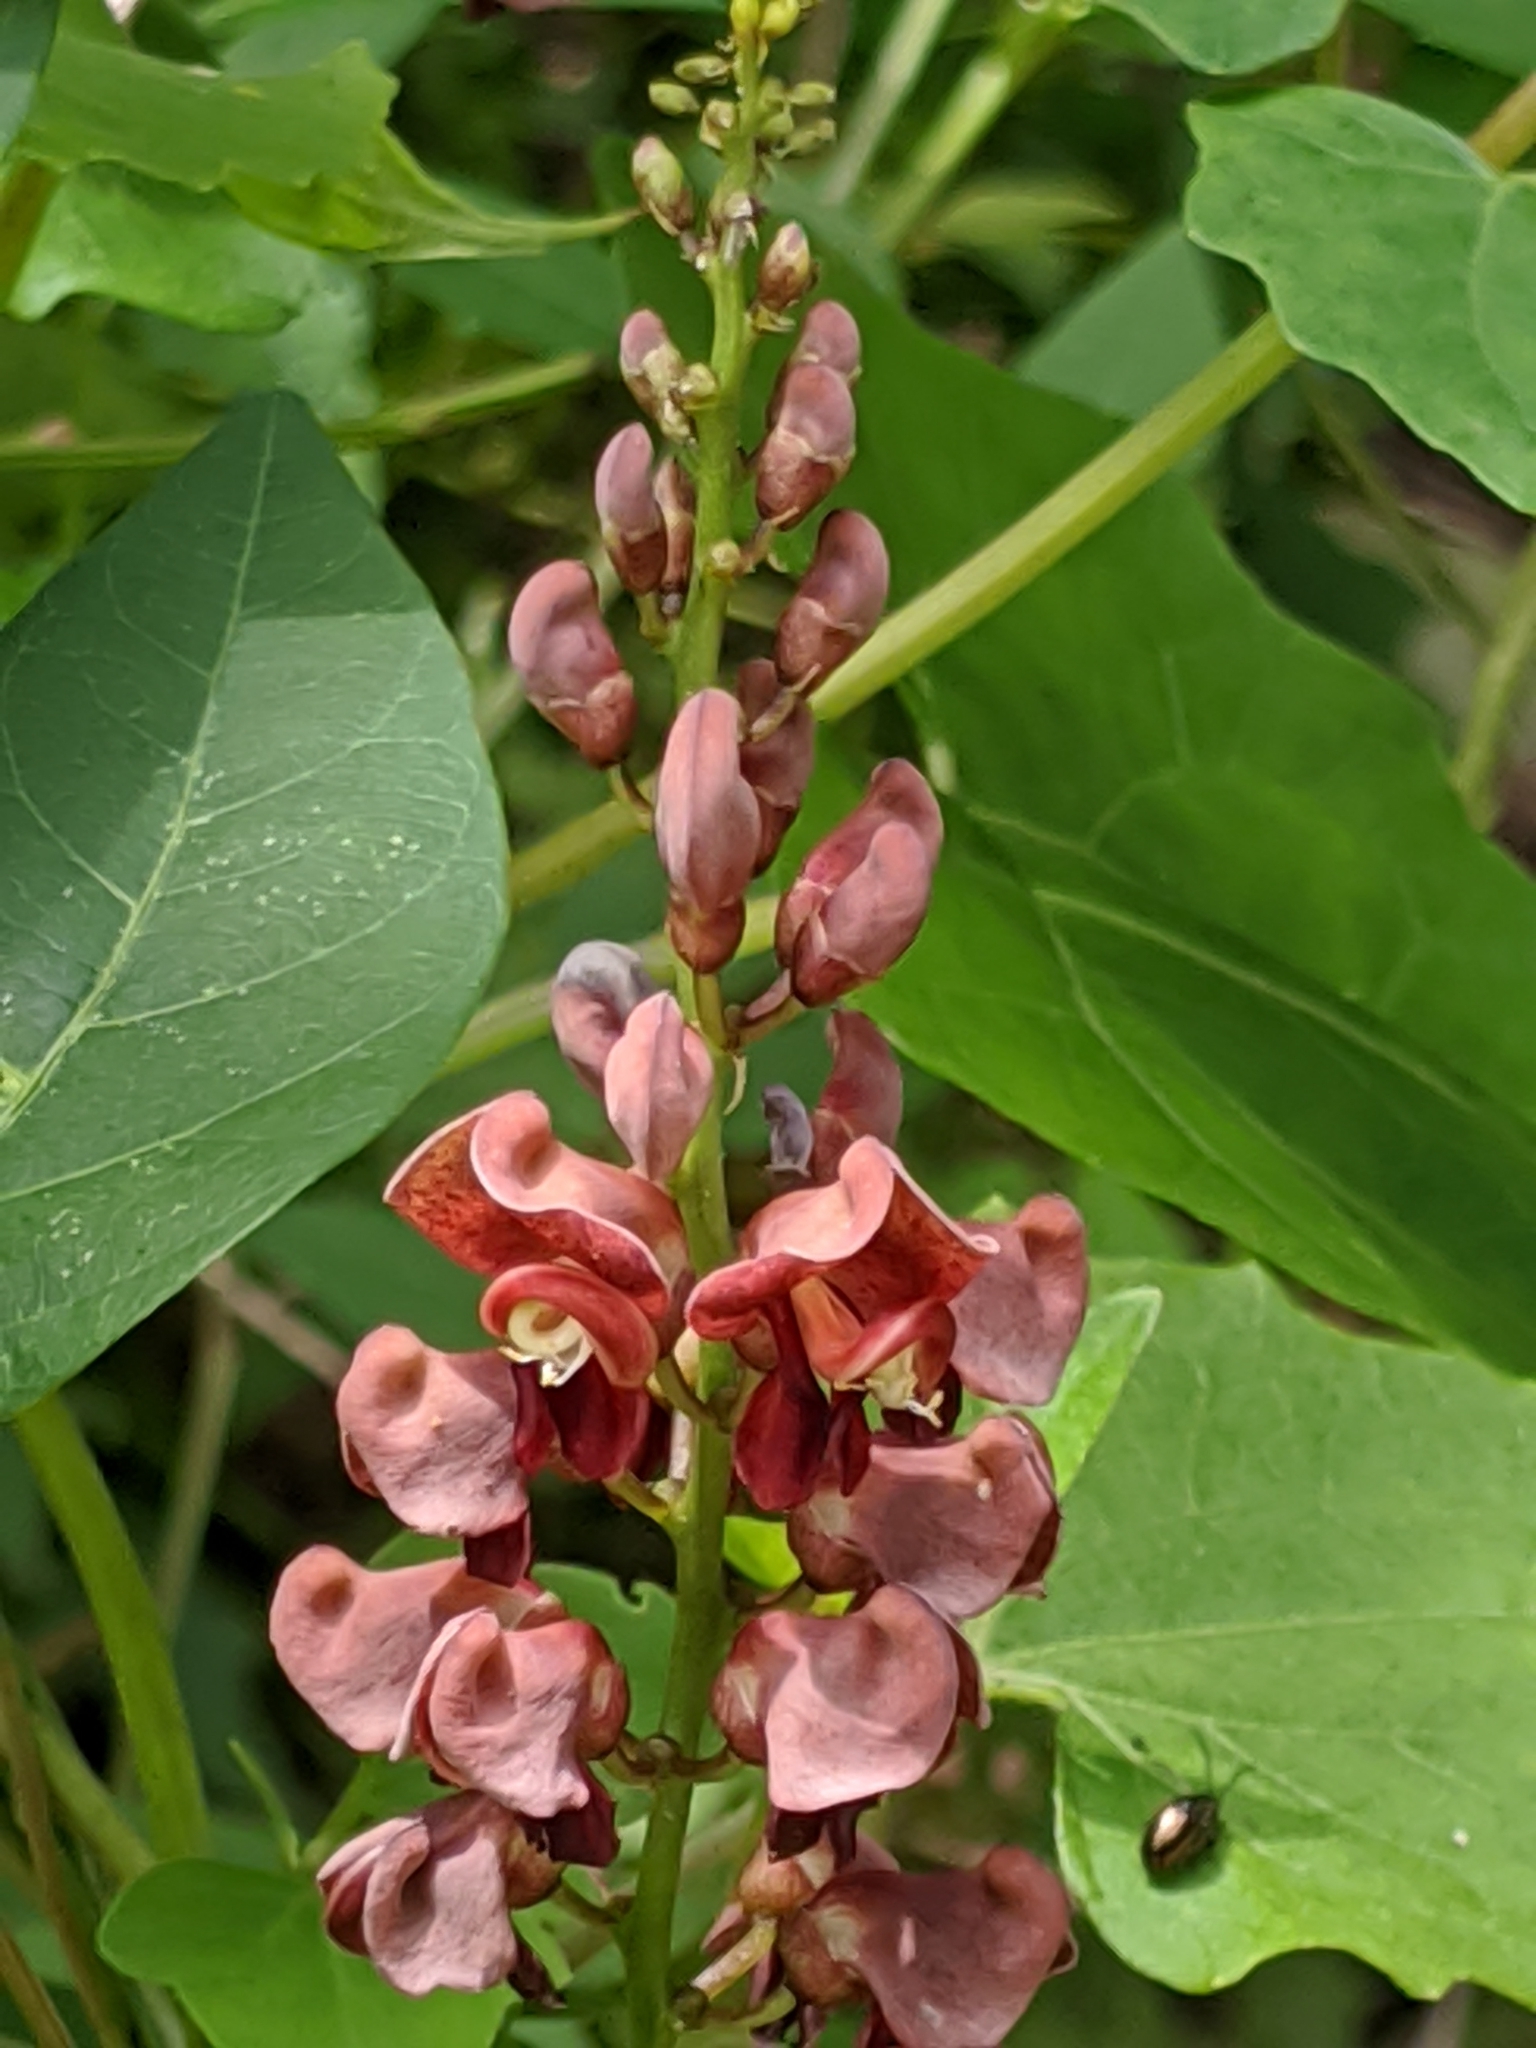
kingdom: Plantae
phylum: Tracheophyta
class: Magnoliopsida
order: Fabales
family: Fabaceae
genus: Apios
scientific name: Apios americana
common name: American potato-bean
